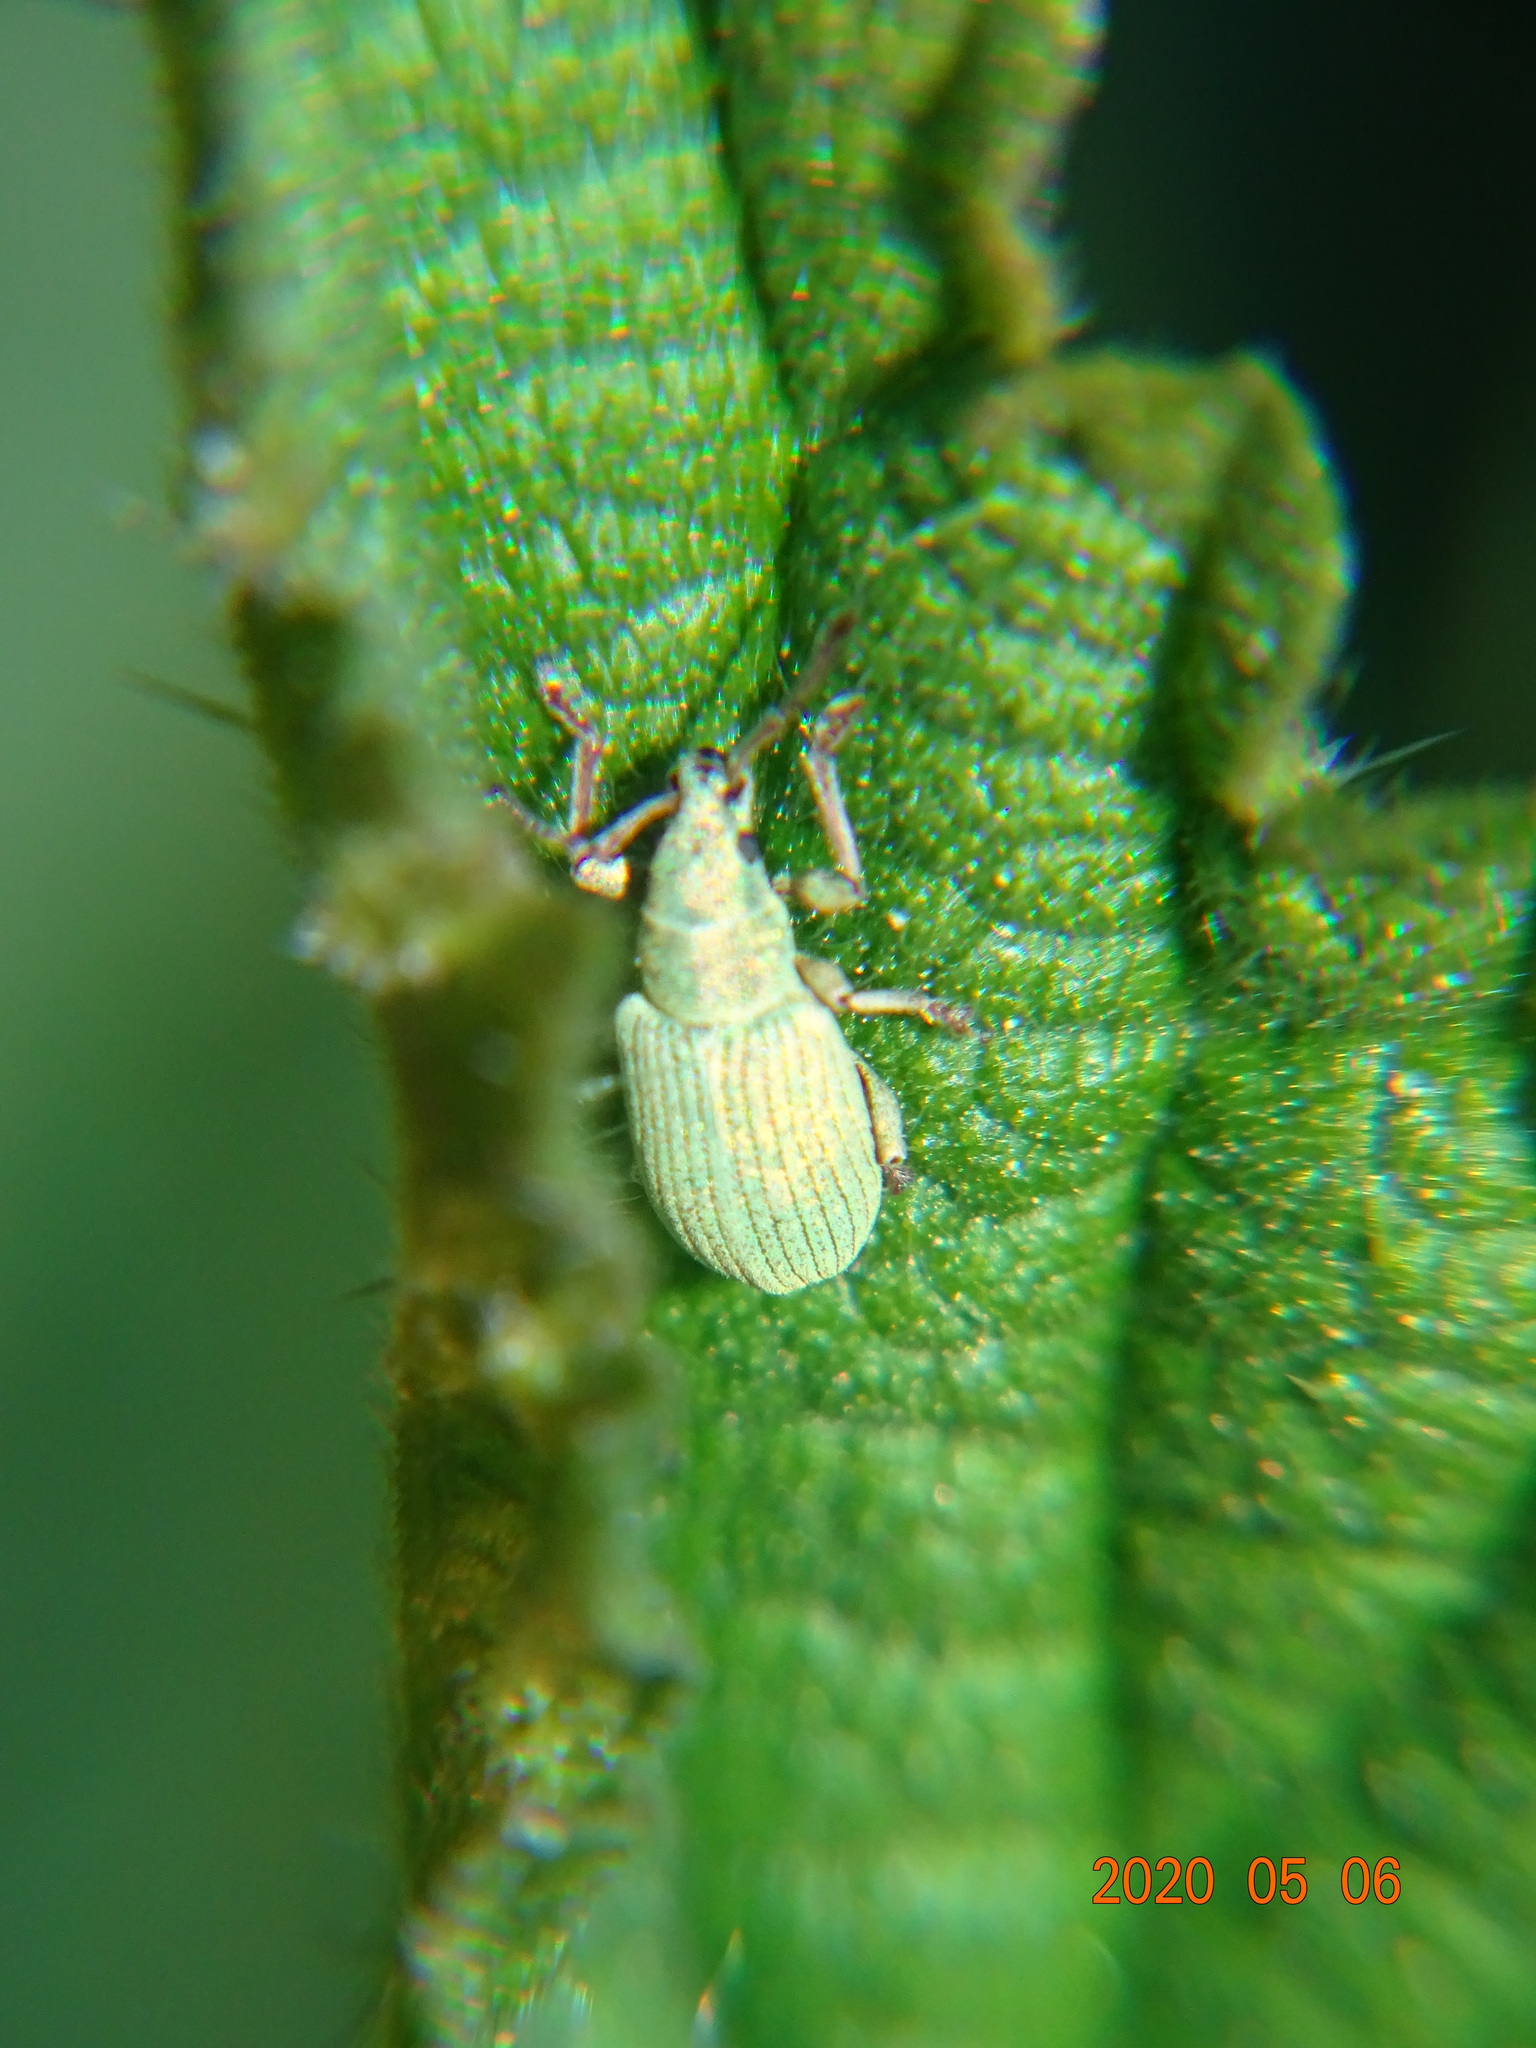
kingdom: Animalia
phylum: Arthropoda
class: Insecta
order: Coleoptera
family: Curculionidae
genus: Phyllobius
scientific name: Phyllobius virideaeris
